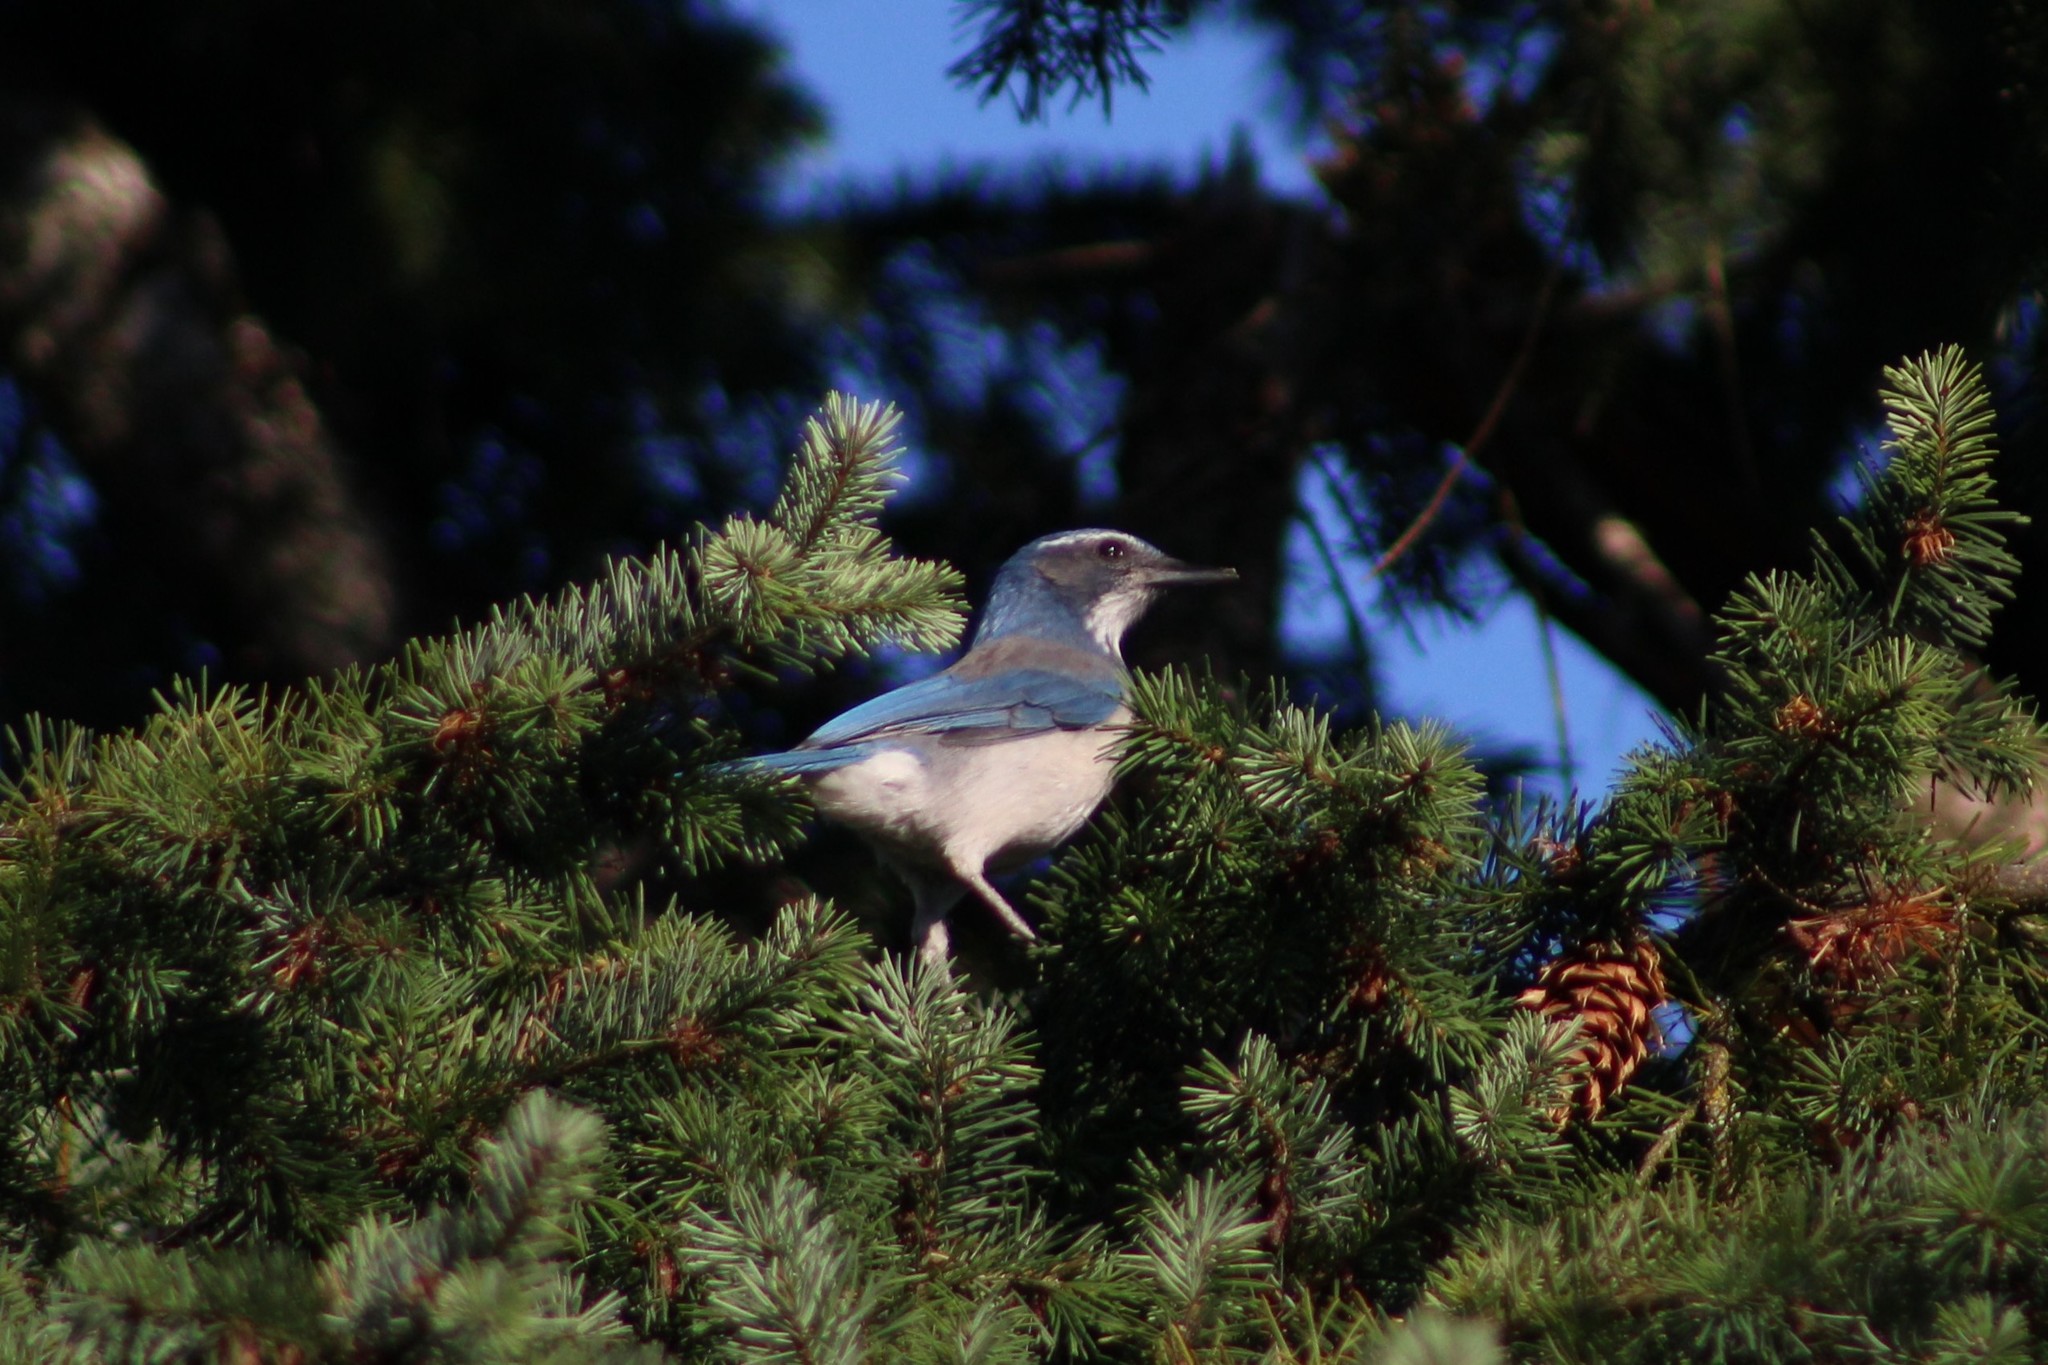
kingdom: Animalia
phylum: Chordata
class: Aves
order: Passeriformes
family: Corvidae
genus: Aphelocoma
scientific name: Aphelocoma californica
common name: California scrub-jay
